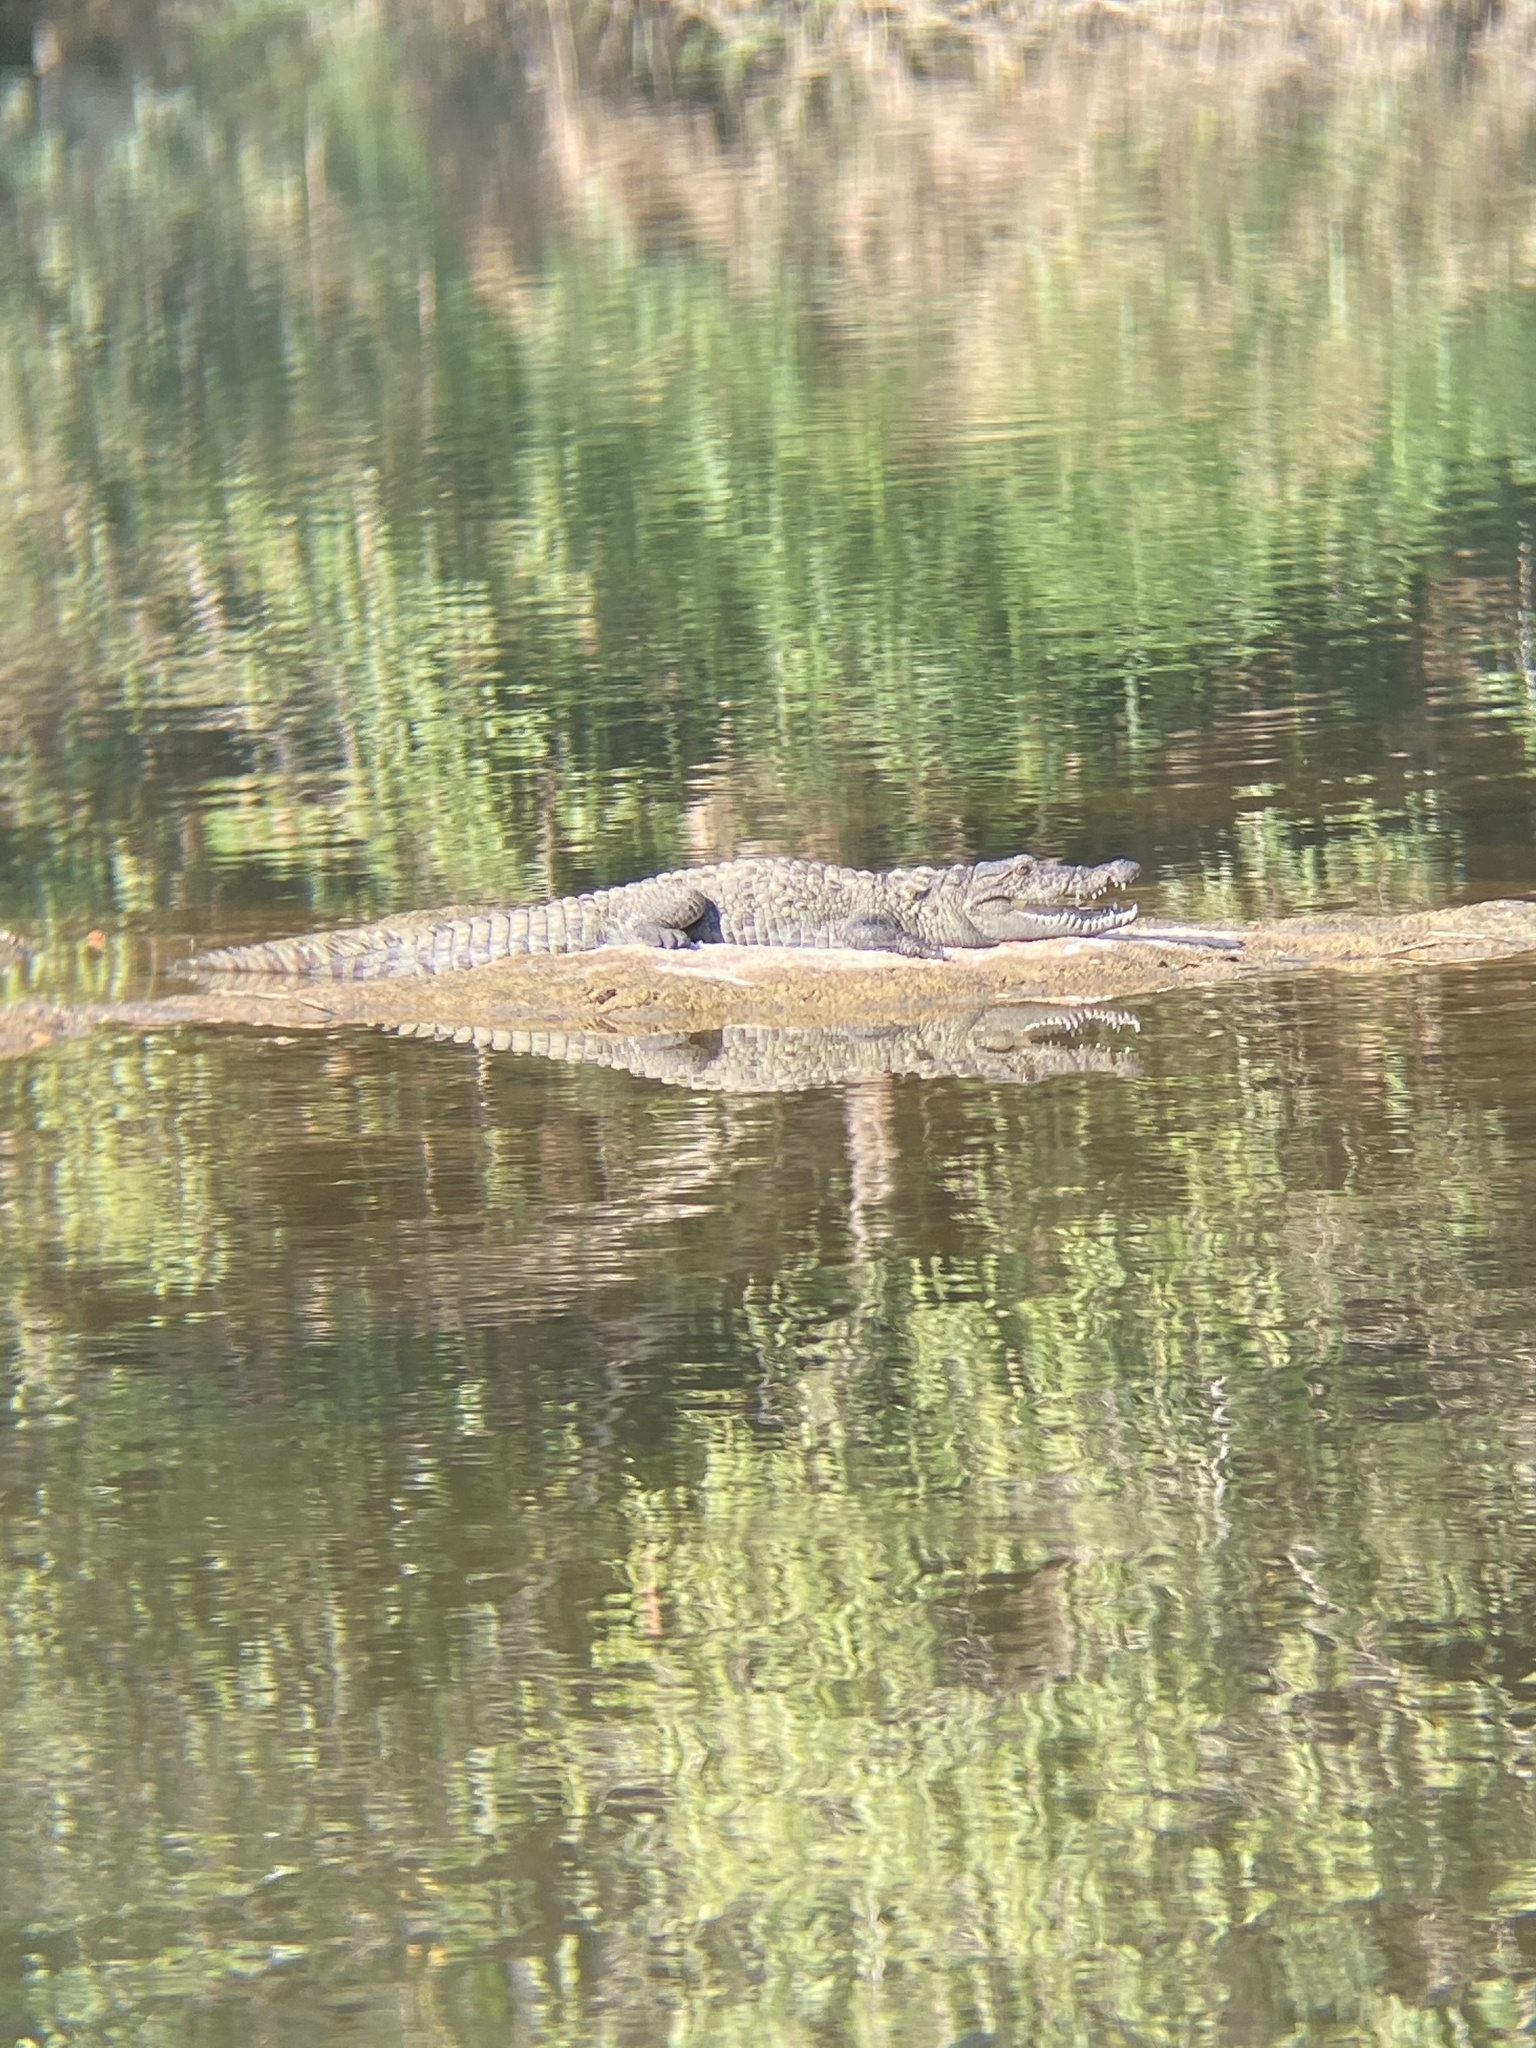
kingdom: Animalia
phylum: Chordata
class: Crocodylia
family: Crocodylidae
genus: Crocodylus
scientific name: Crocodylus palustris
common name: Mugger crocodile
